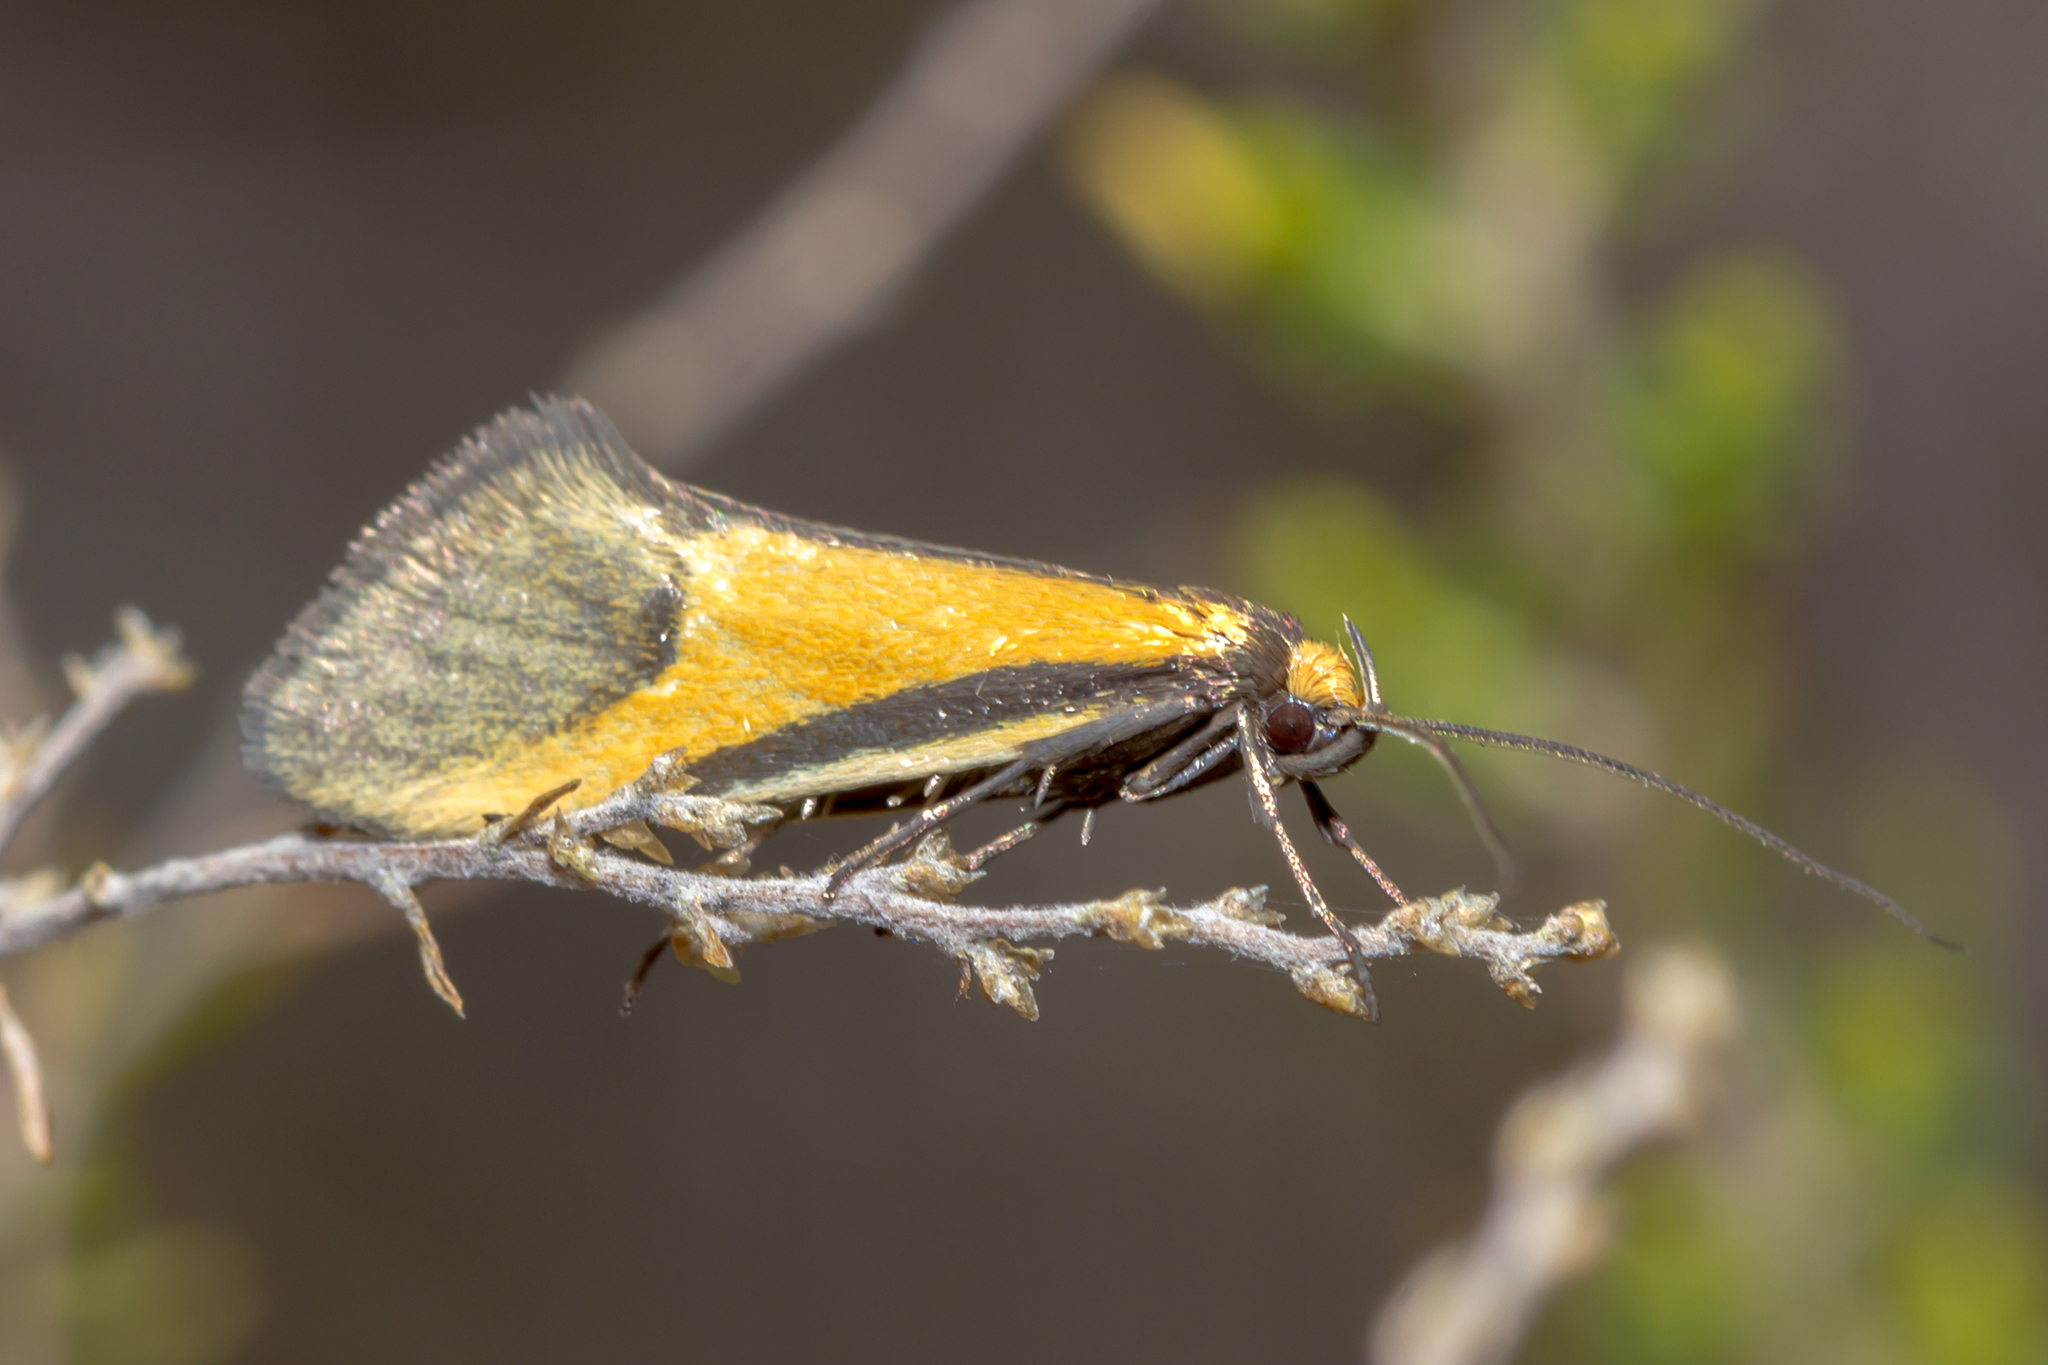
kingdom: Animalia
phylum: Arthropoda
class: Insecta
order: Lepidoptera
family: Oecophoridae
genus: Philobota
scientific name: Philobota arabella
